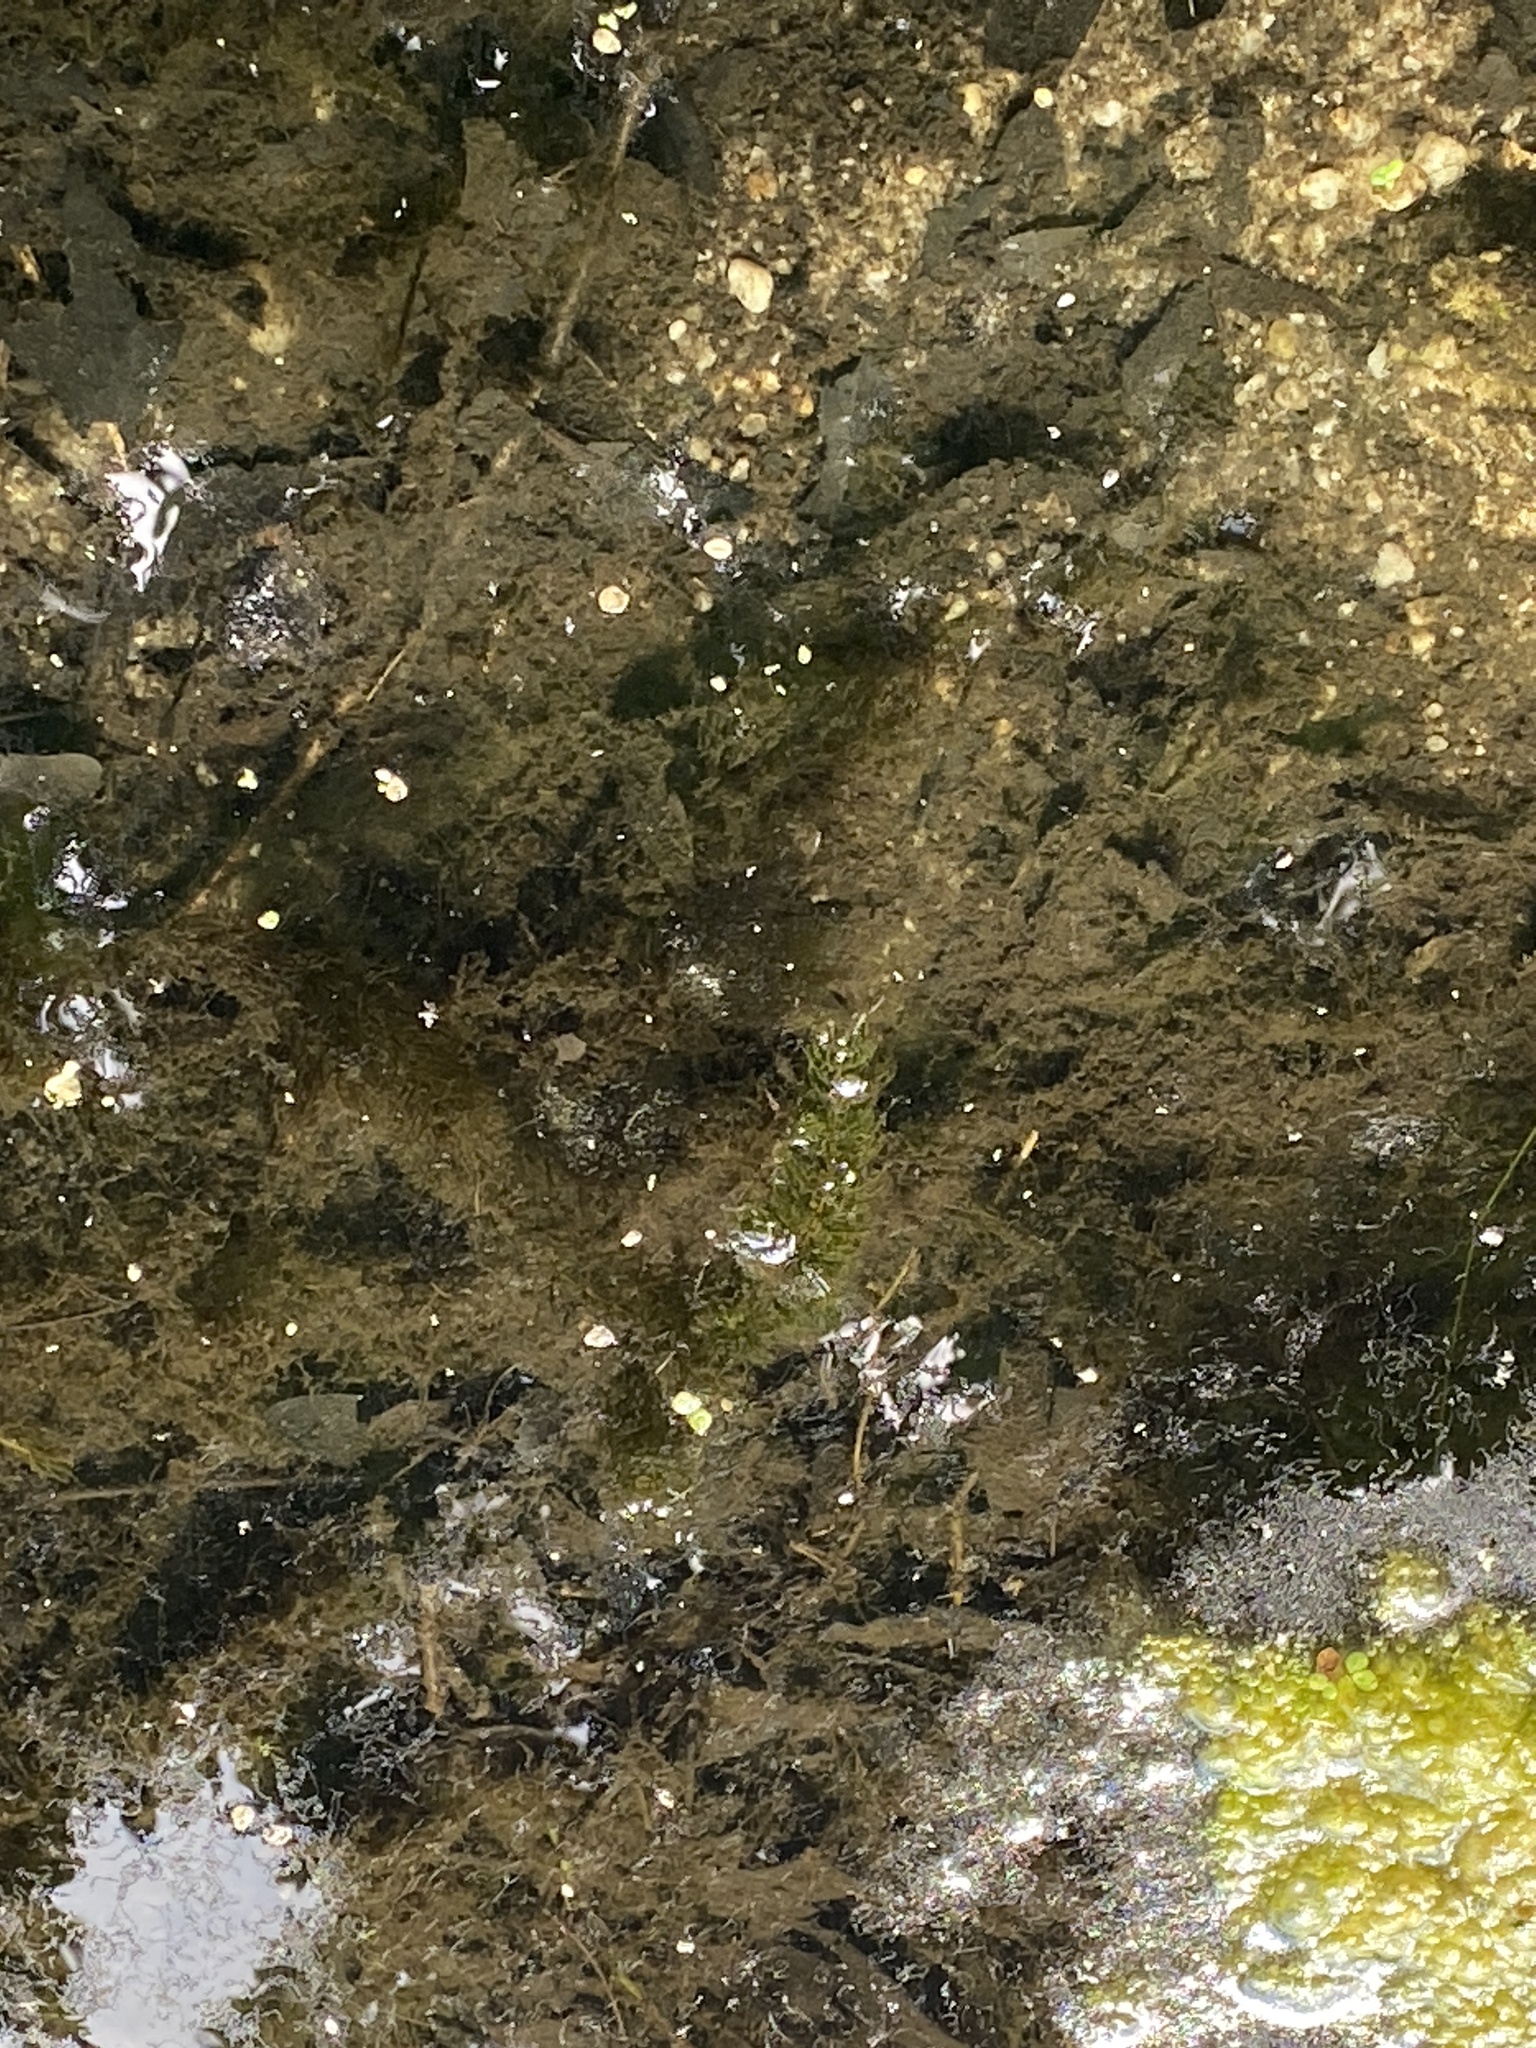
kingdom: Plantae
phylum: Tracheophyta
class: Magnoliopsida
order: Ceratophyllales
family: Ceratophyllaceae
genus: Ceratophyllum
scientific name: Ceratophyllum demersum
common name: Rigid hornwort
